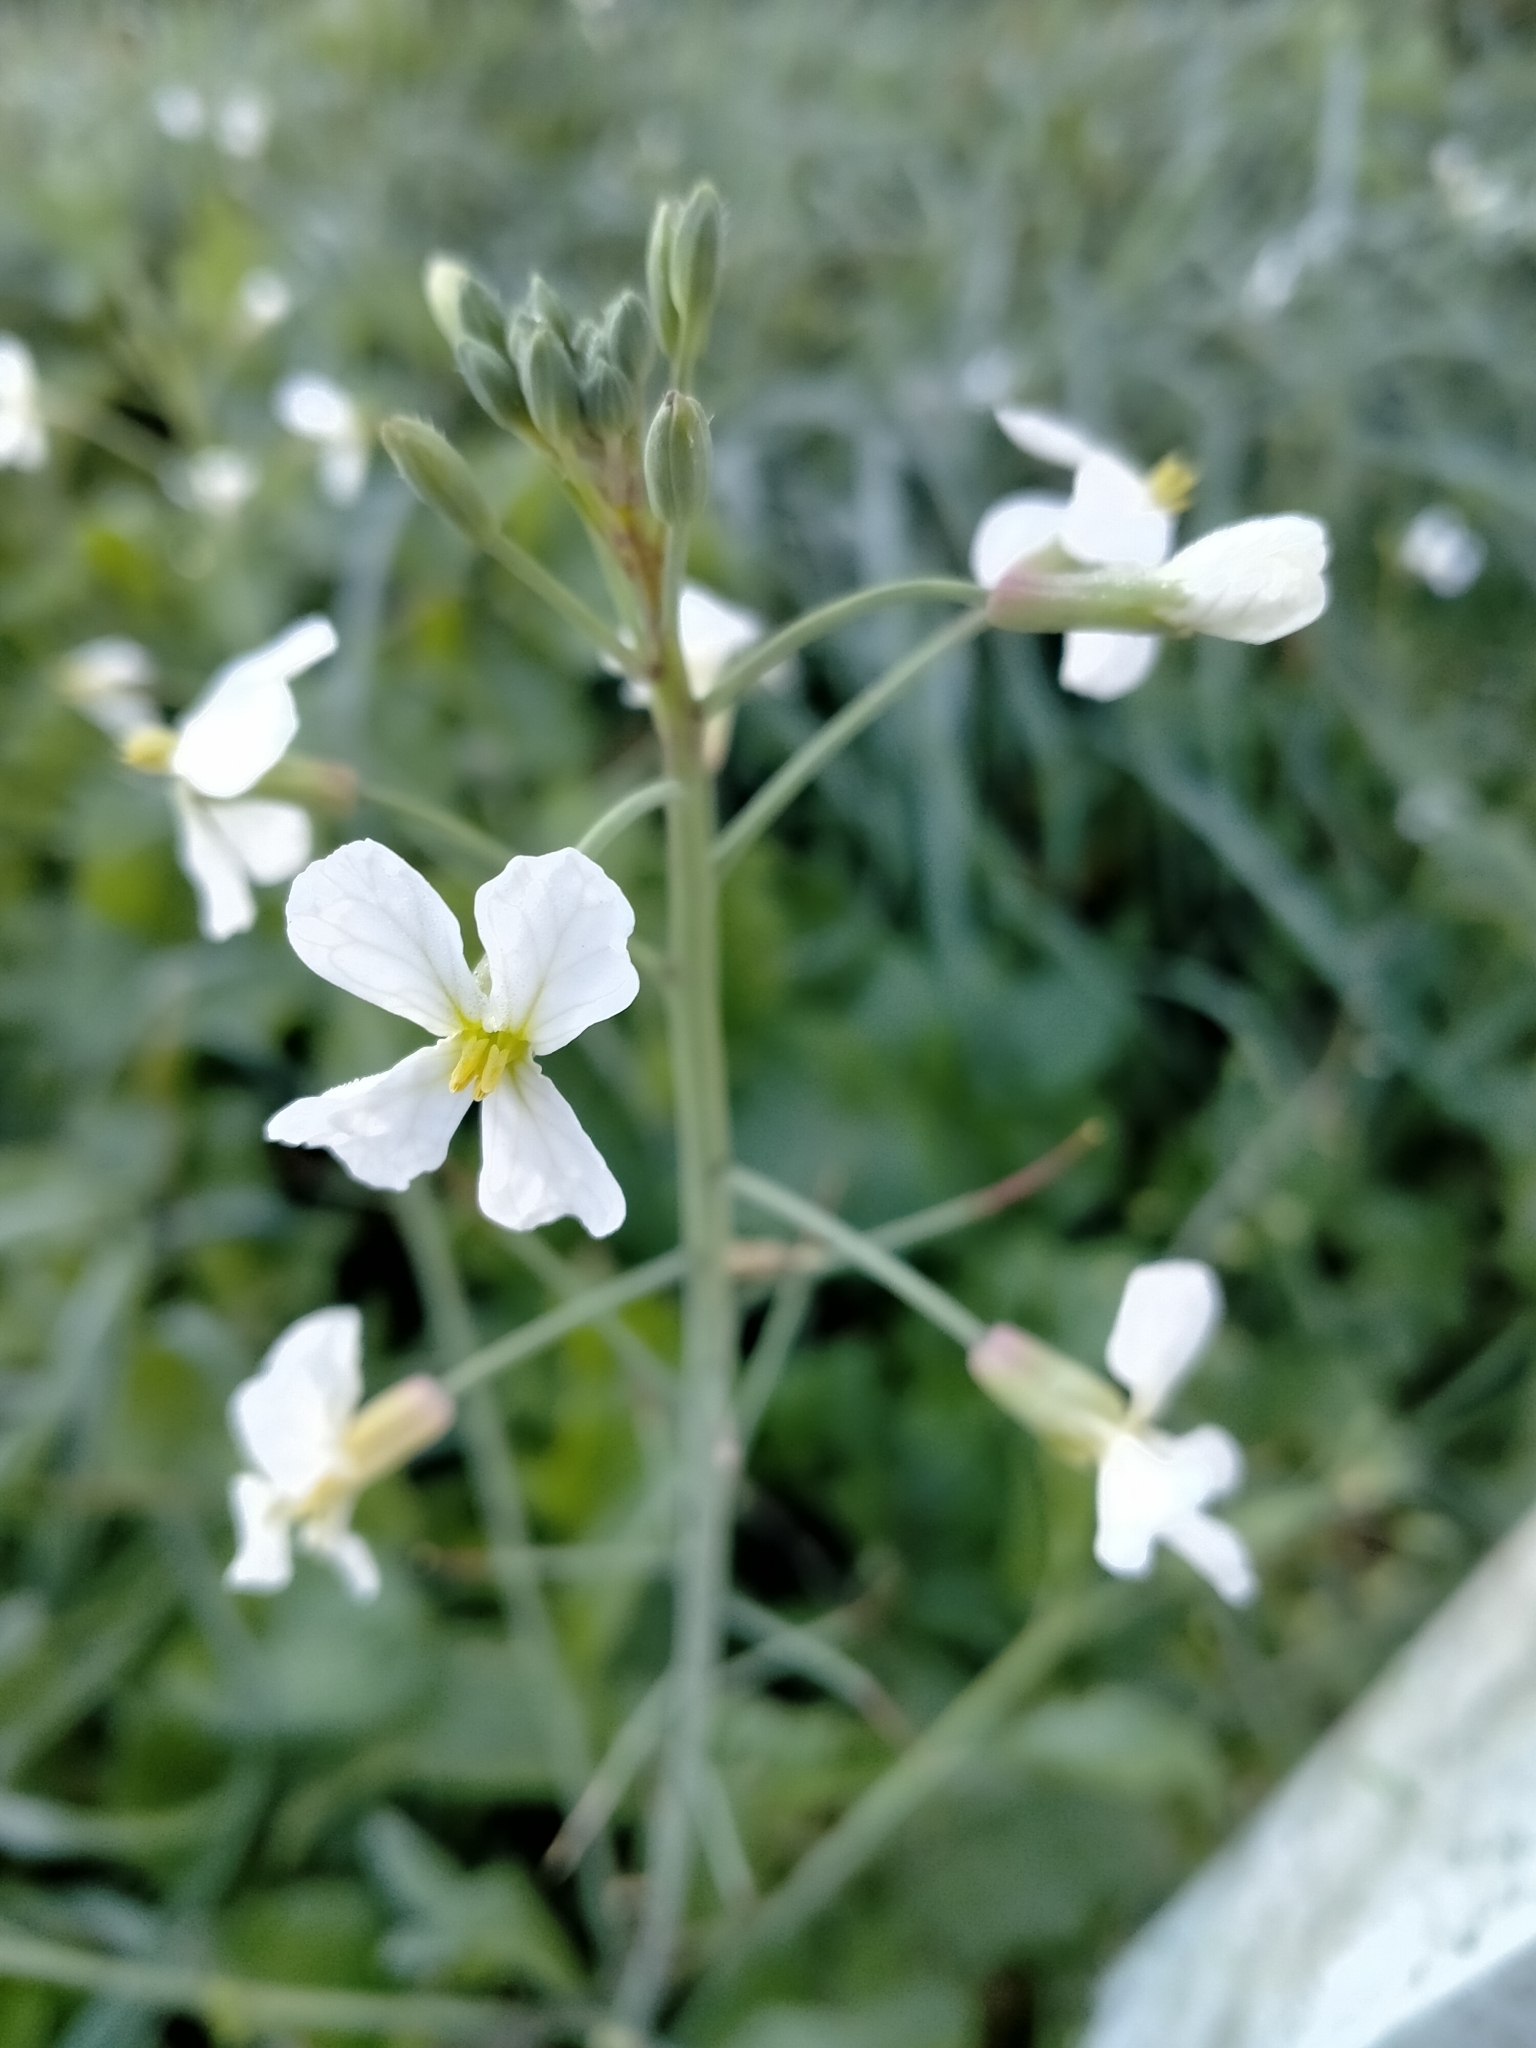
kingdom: Plantae
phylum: Tracheophyta
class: Magnoliopsida
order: Brassicales
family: Brassicaceae
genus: Raphanus
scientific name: Raphanus raphanistrum
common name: Wild radish
